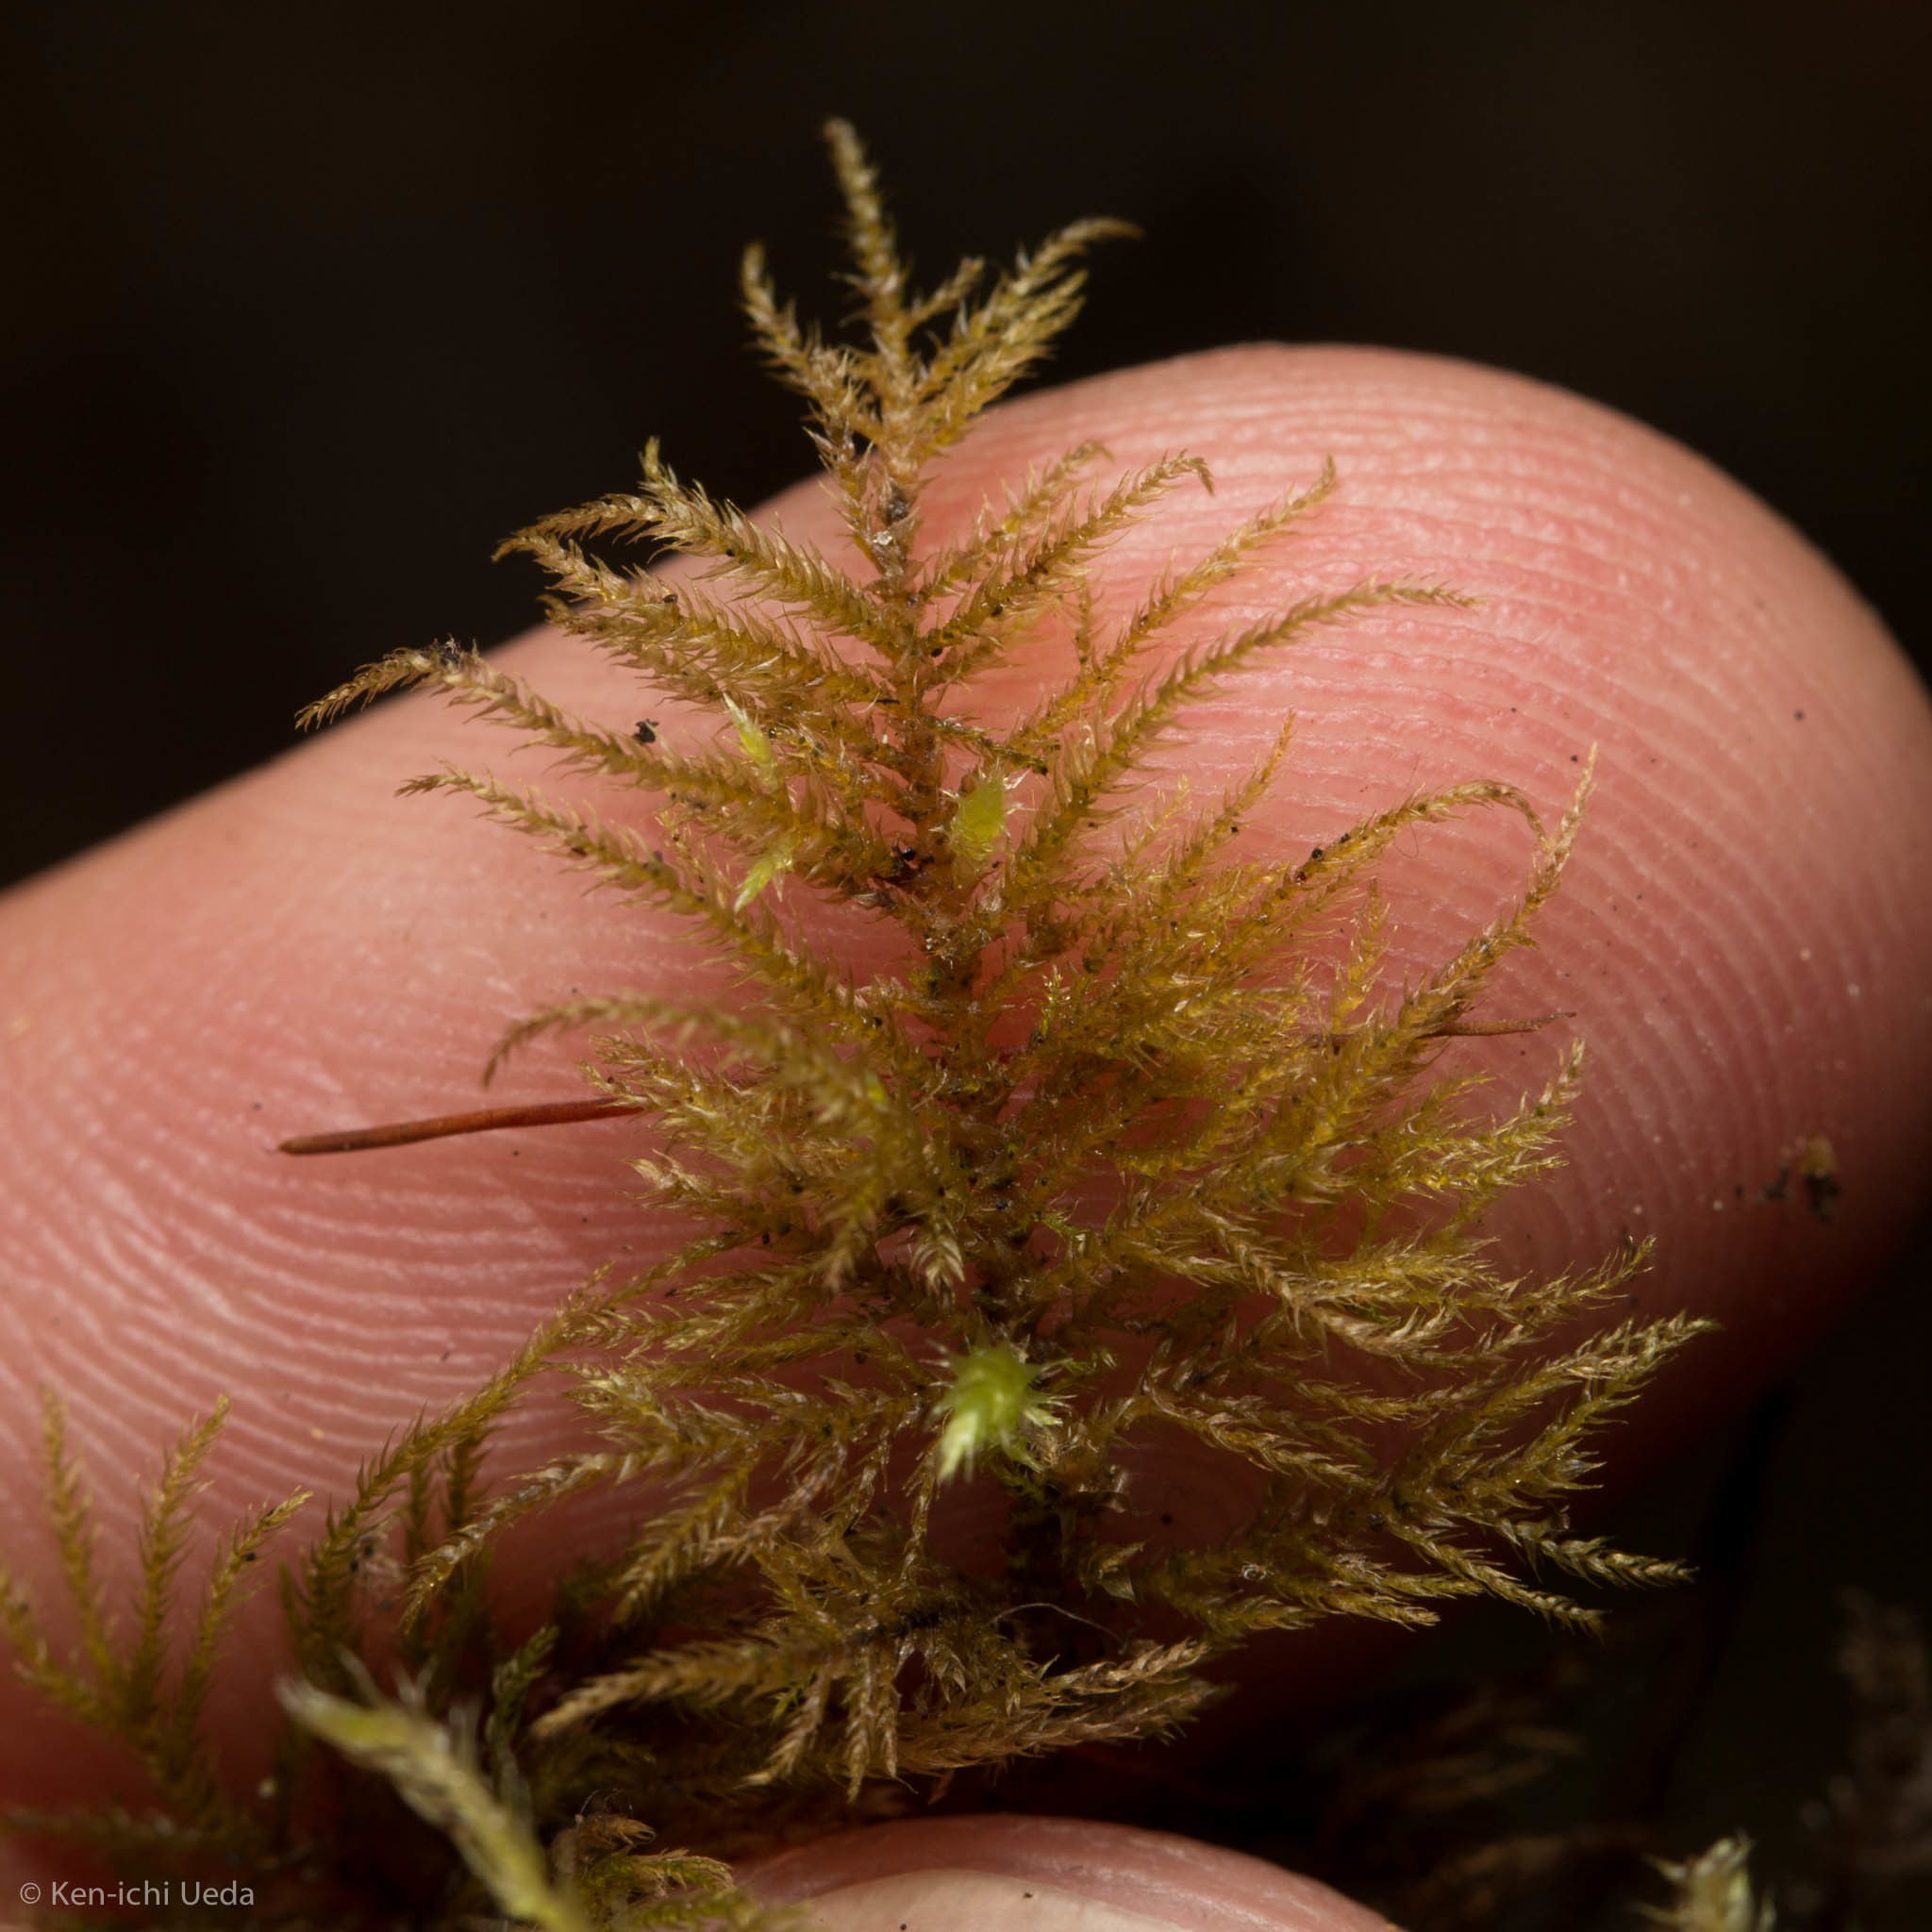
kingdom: Plantae
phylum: Bryophyta
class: Bryopsida
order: Hypnales
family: Brachytheciaceae
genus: Kindbergia
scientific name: Kindbergia praelonga
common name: Slender beaked moss
